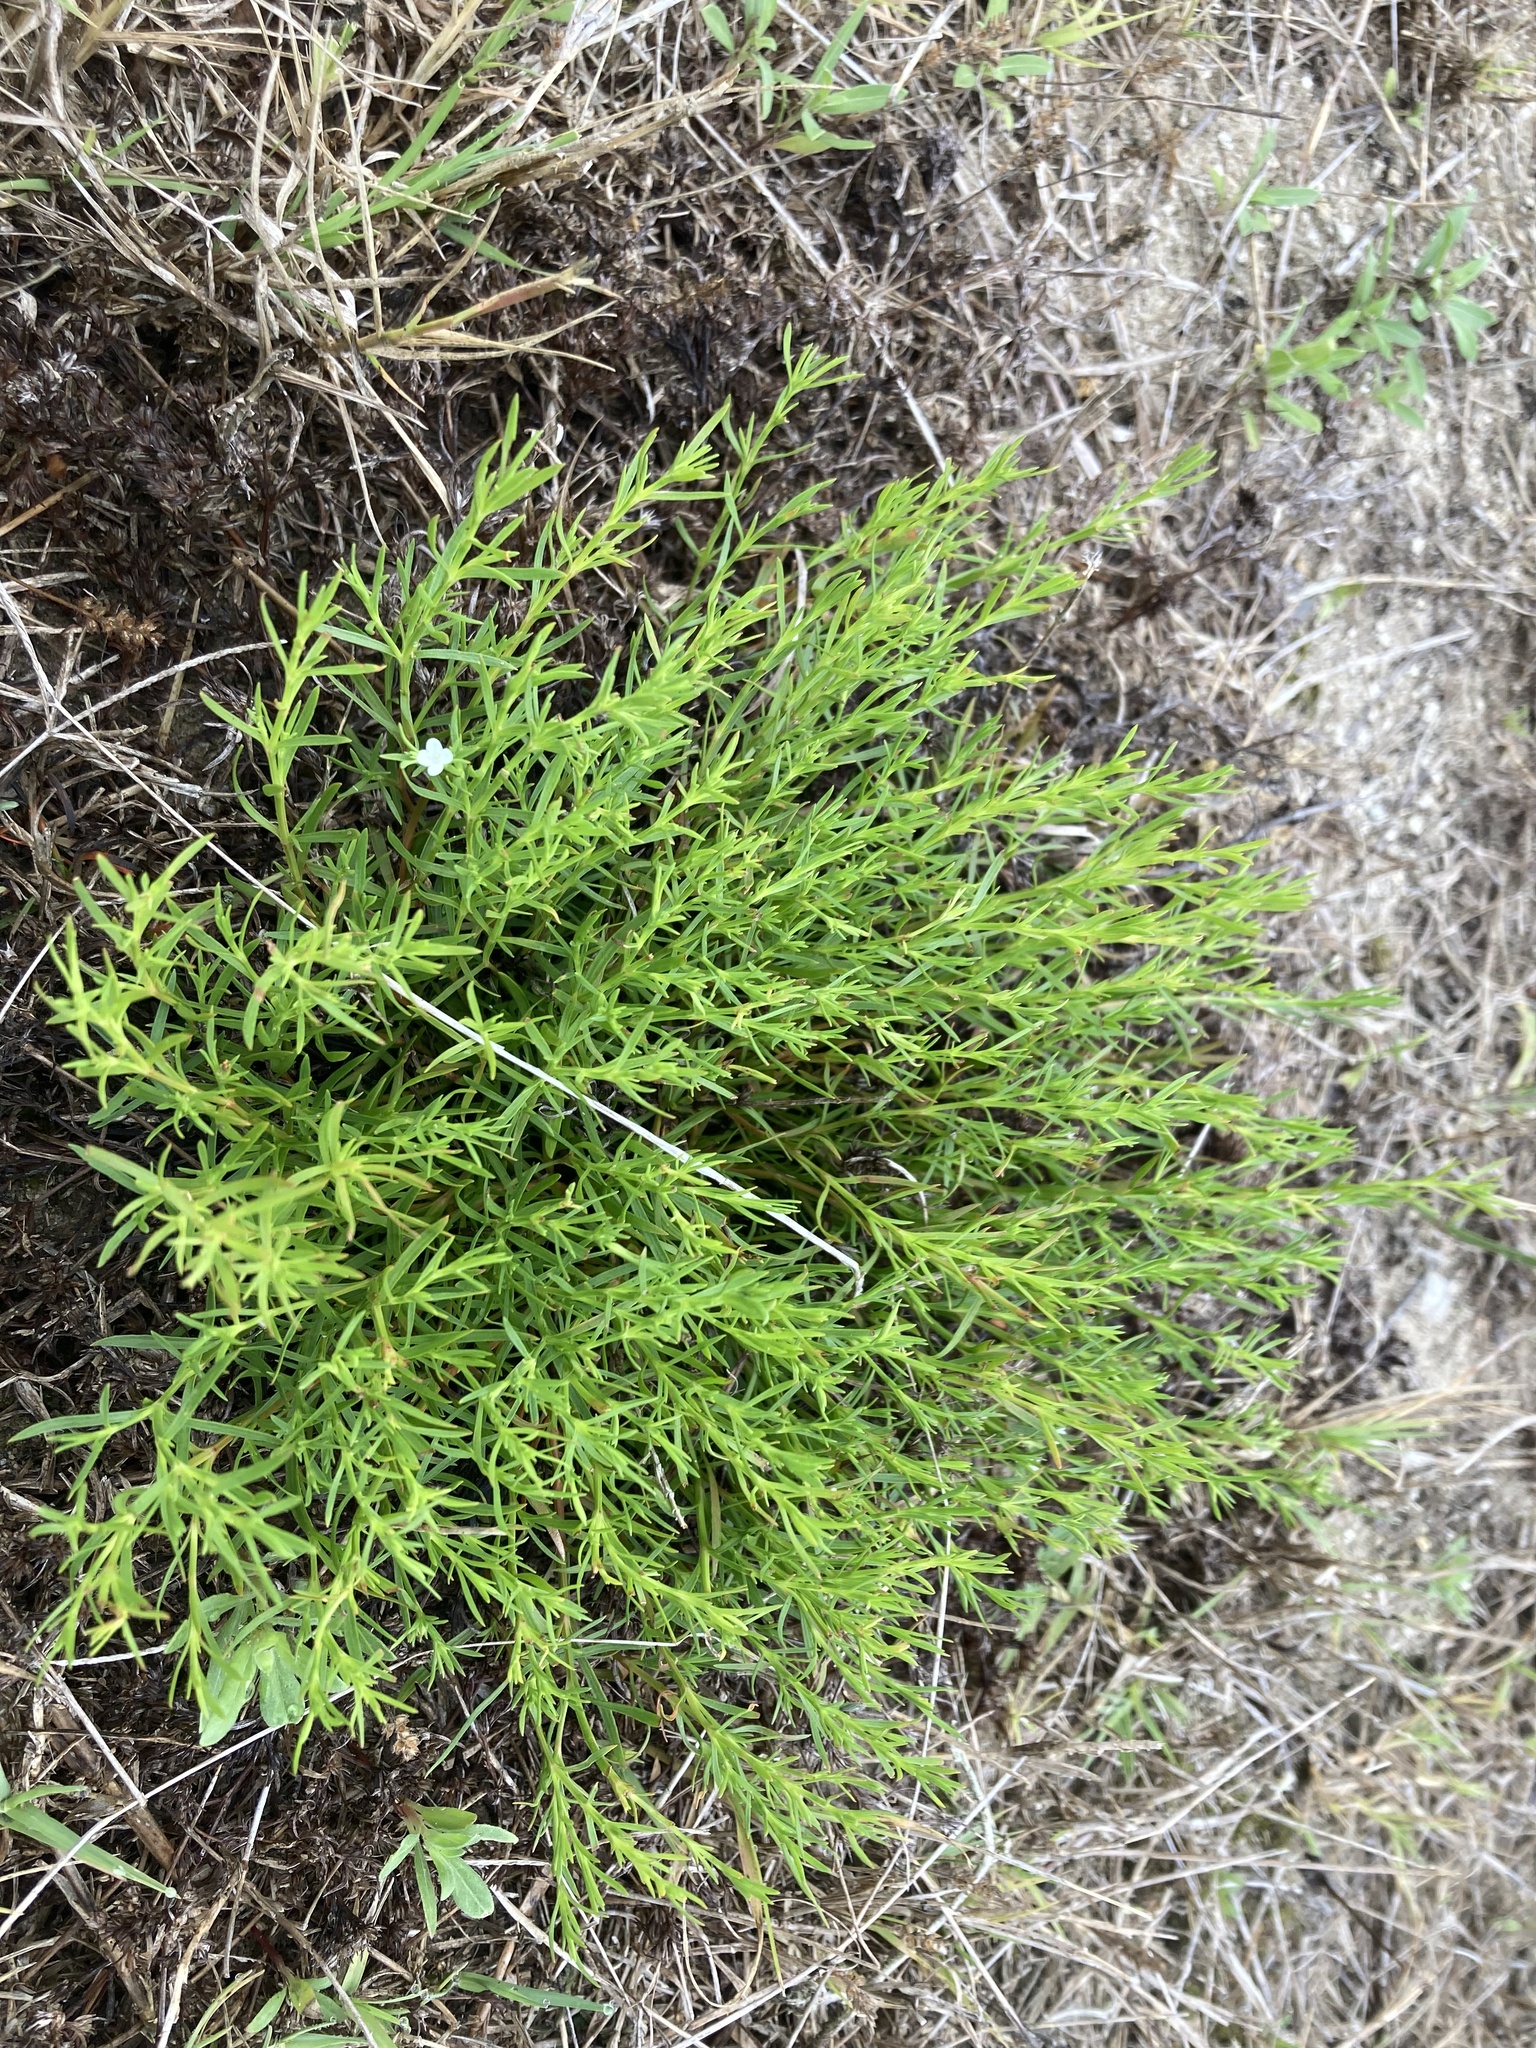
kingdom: Plantae
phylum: Tracheophyta
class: Magnoliopsida
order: Lamiales
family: Tetrachondraceae
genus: Polypremum
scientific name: Polypremum procumbens
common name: Juniper-leaf
